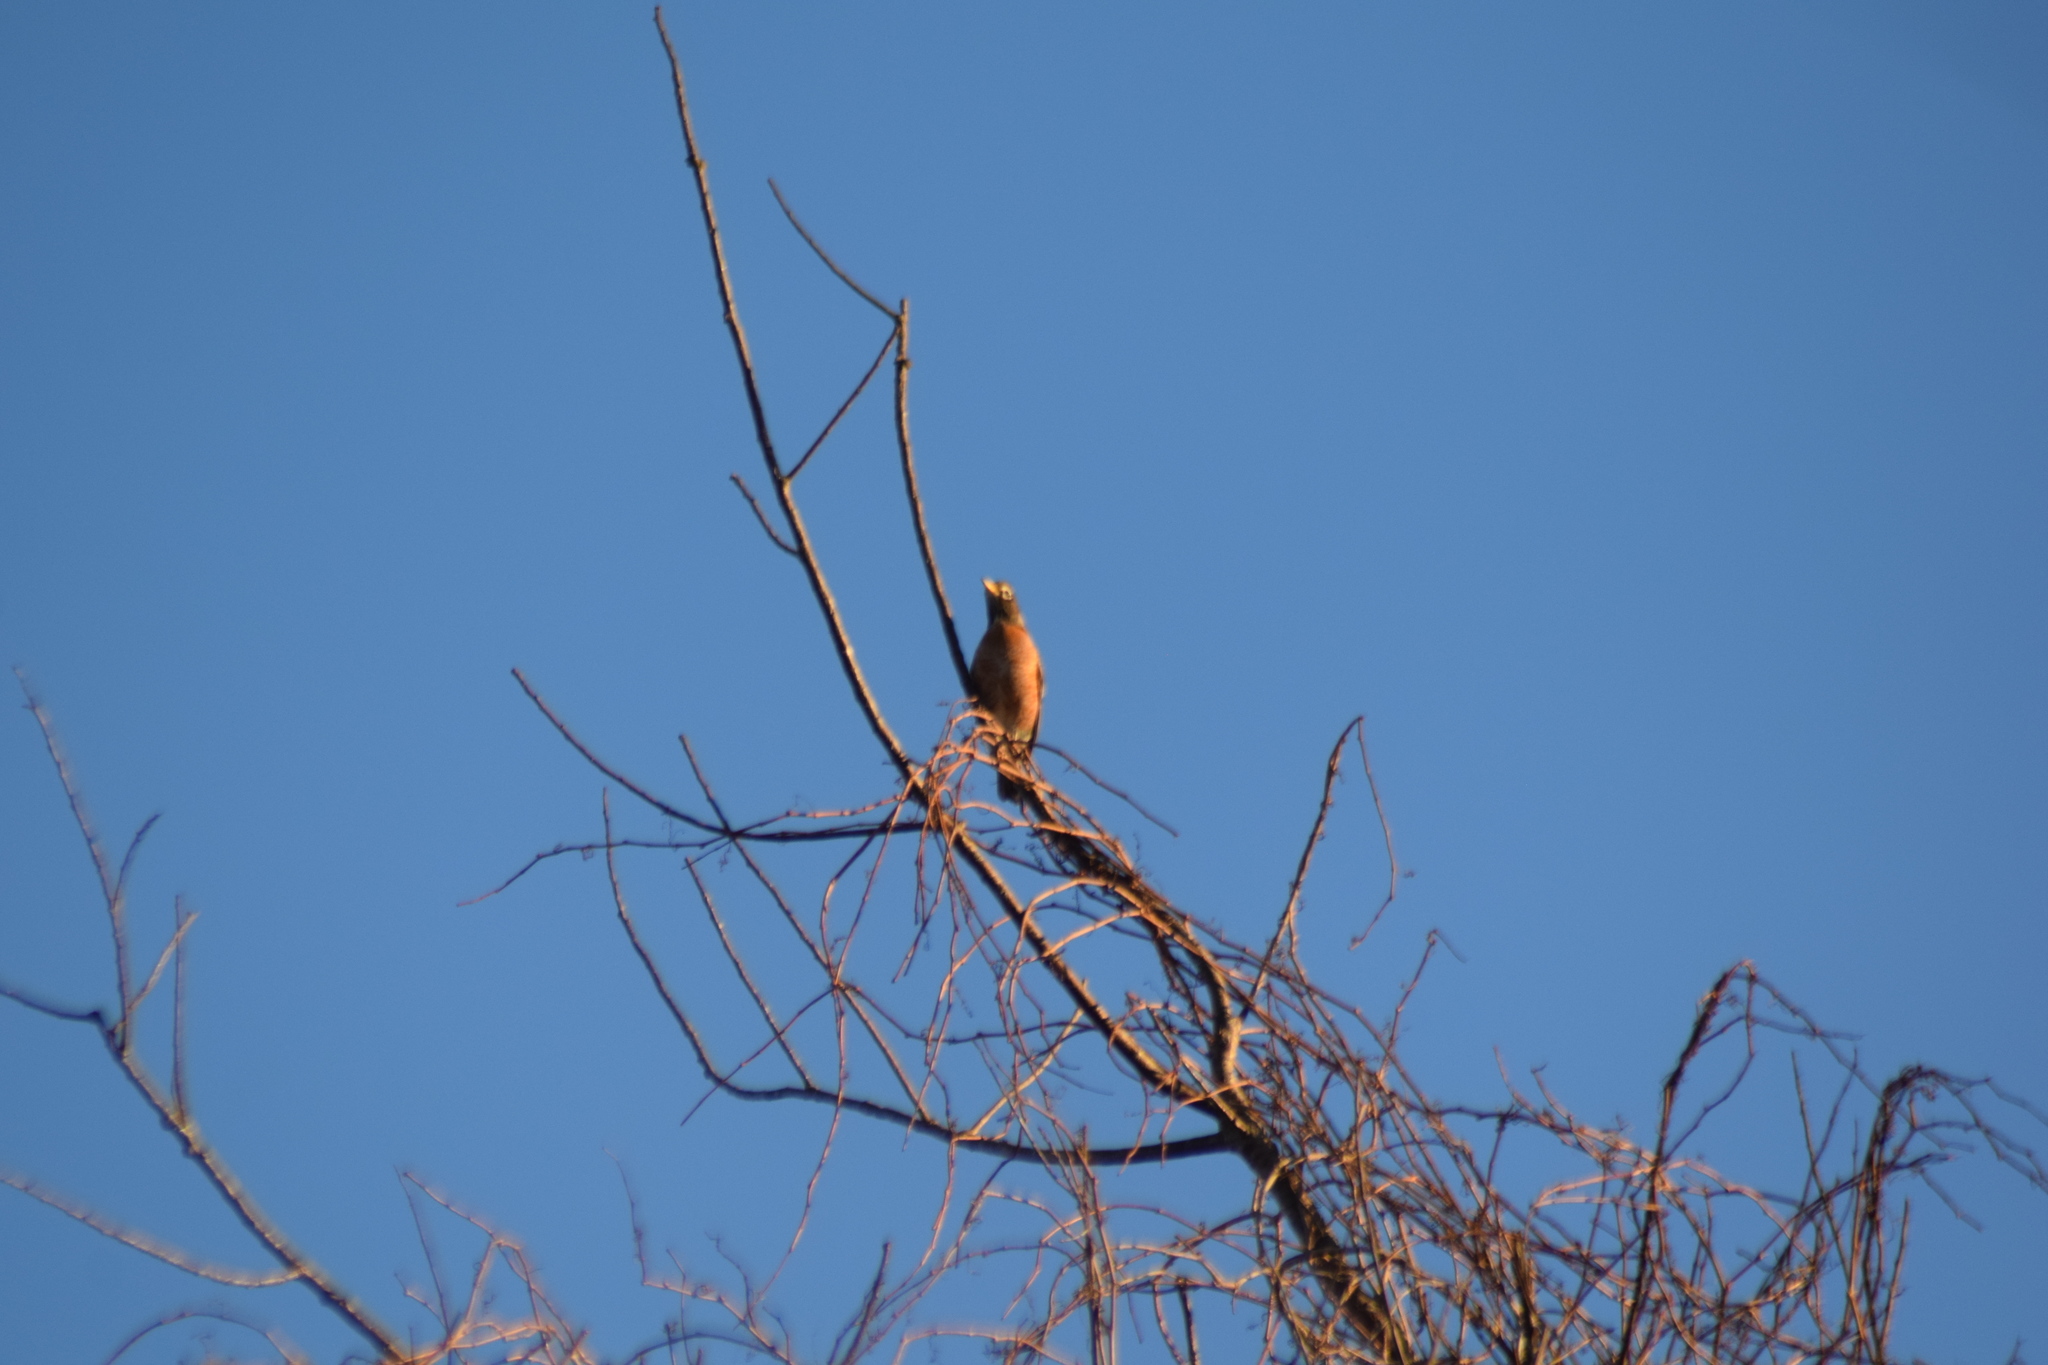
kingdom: Animalia
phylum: Chordata
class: Aves
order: Passeriformes
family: Turdidae
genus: Turdus
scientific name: Turdus migratorius
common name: American robin
